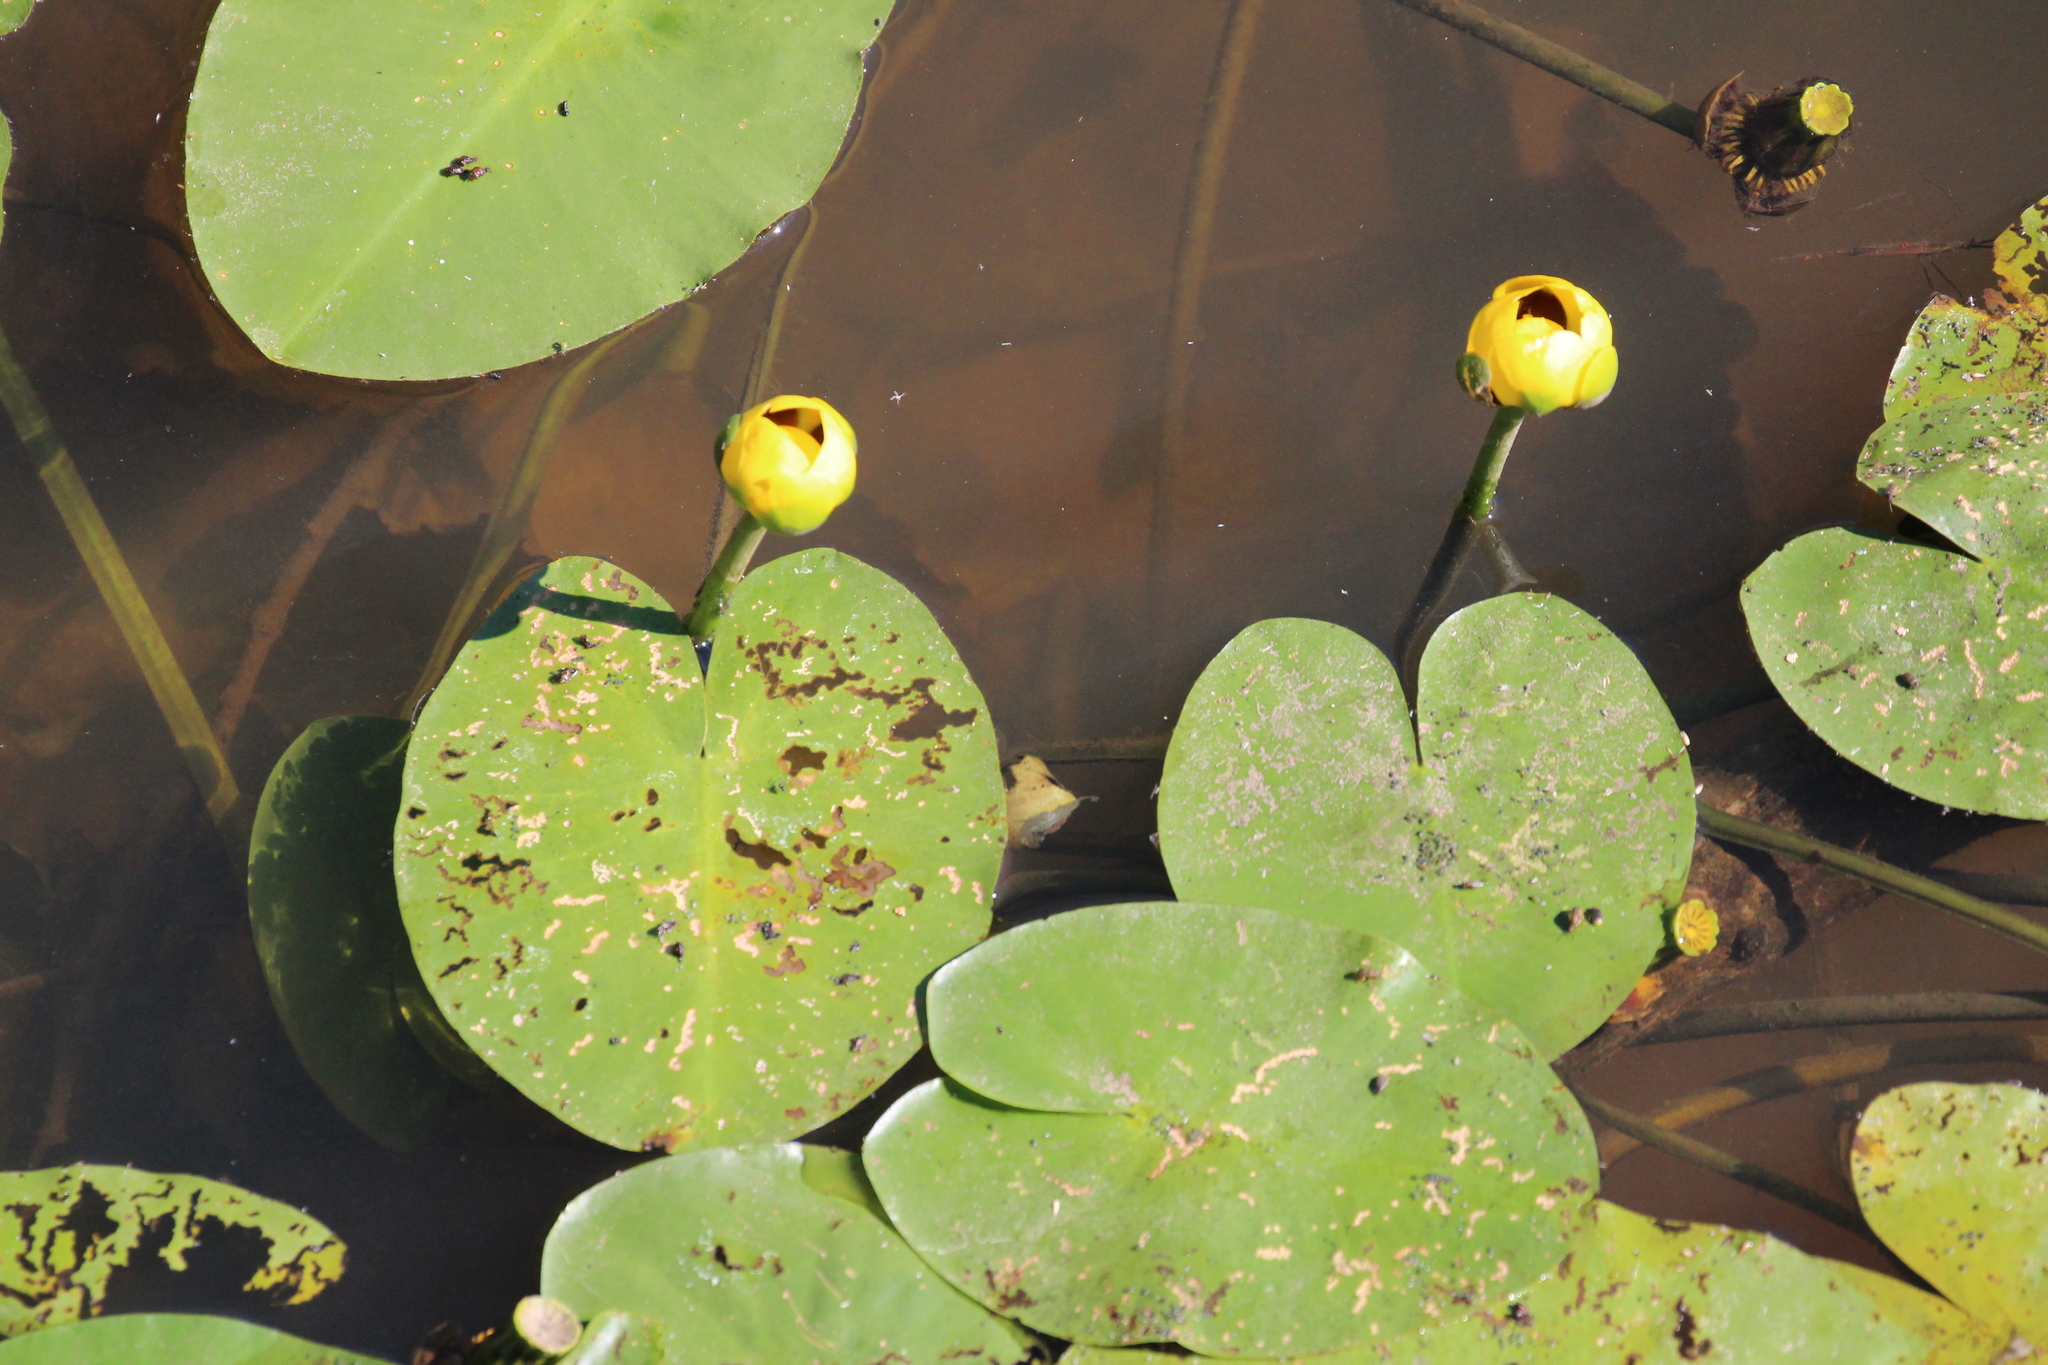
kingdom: Plantae
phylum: Tracheophyta
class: Magnoliopsida
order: Nymphaeales
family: Nymphaeaceae
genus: Nuphar
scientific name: Nuphar variegata
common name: Beaver-root
